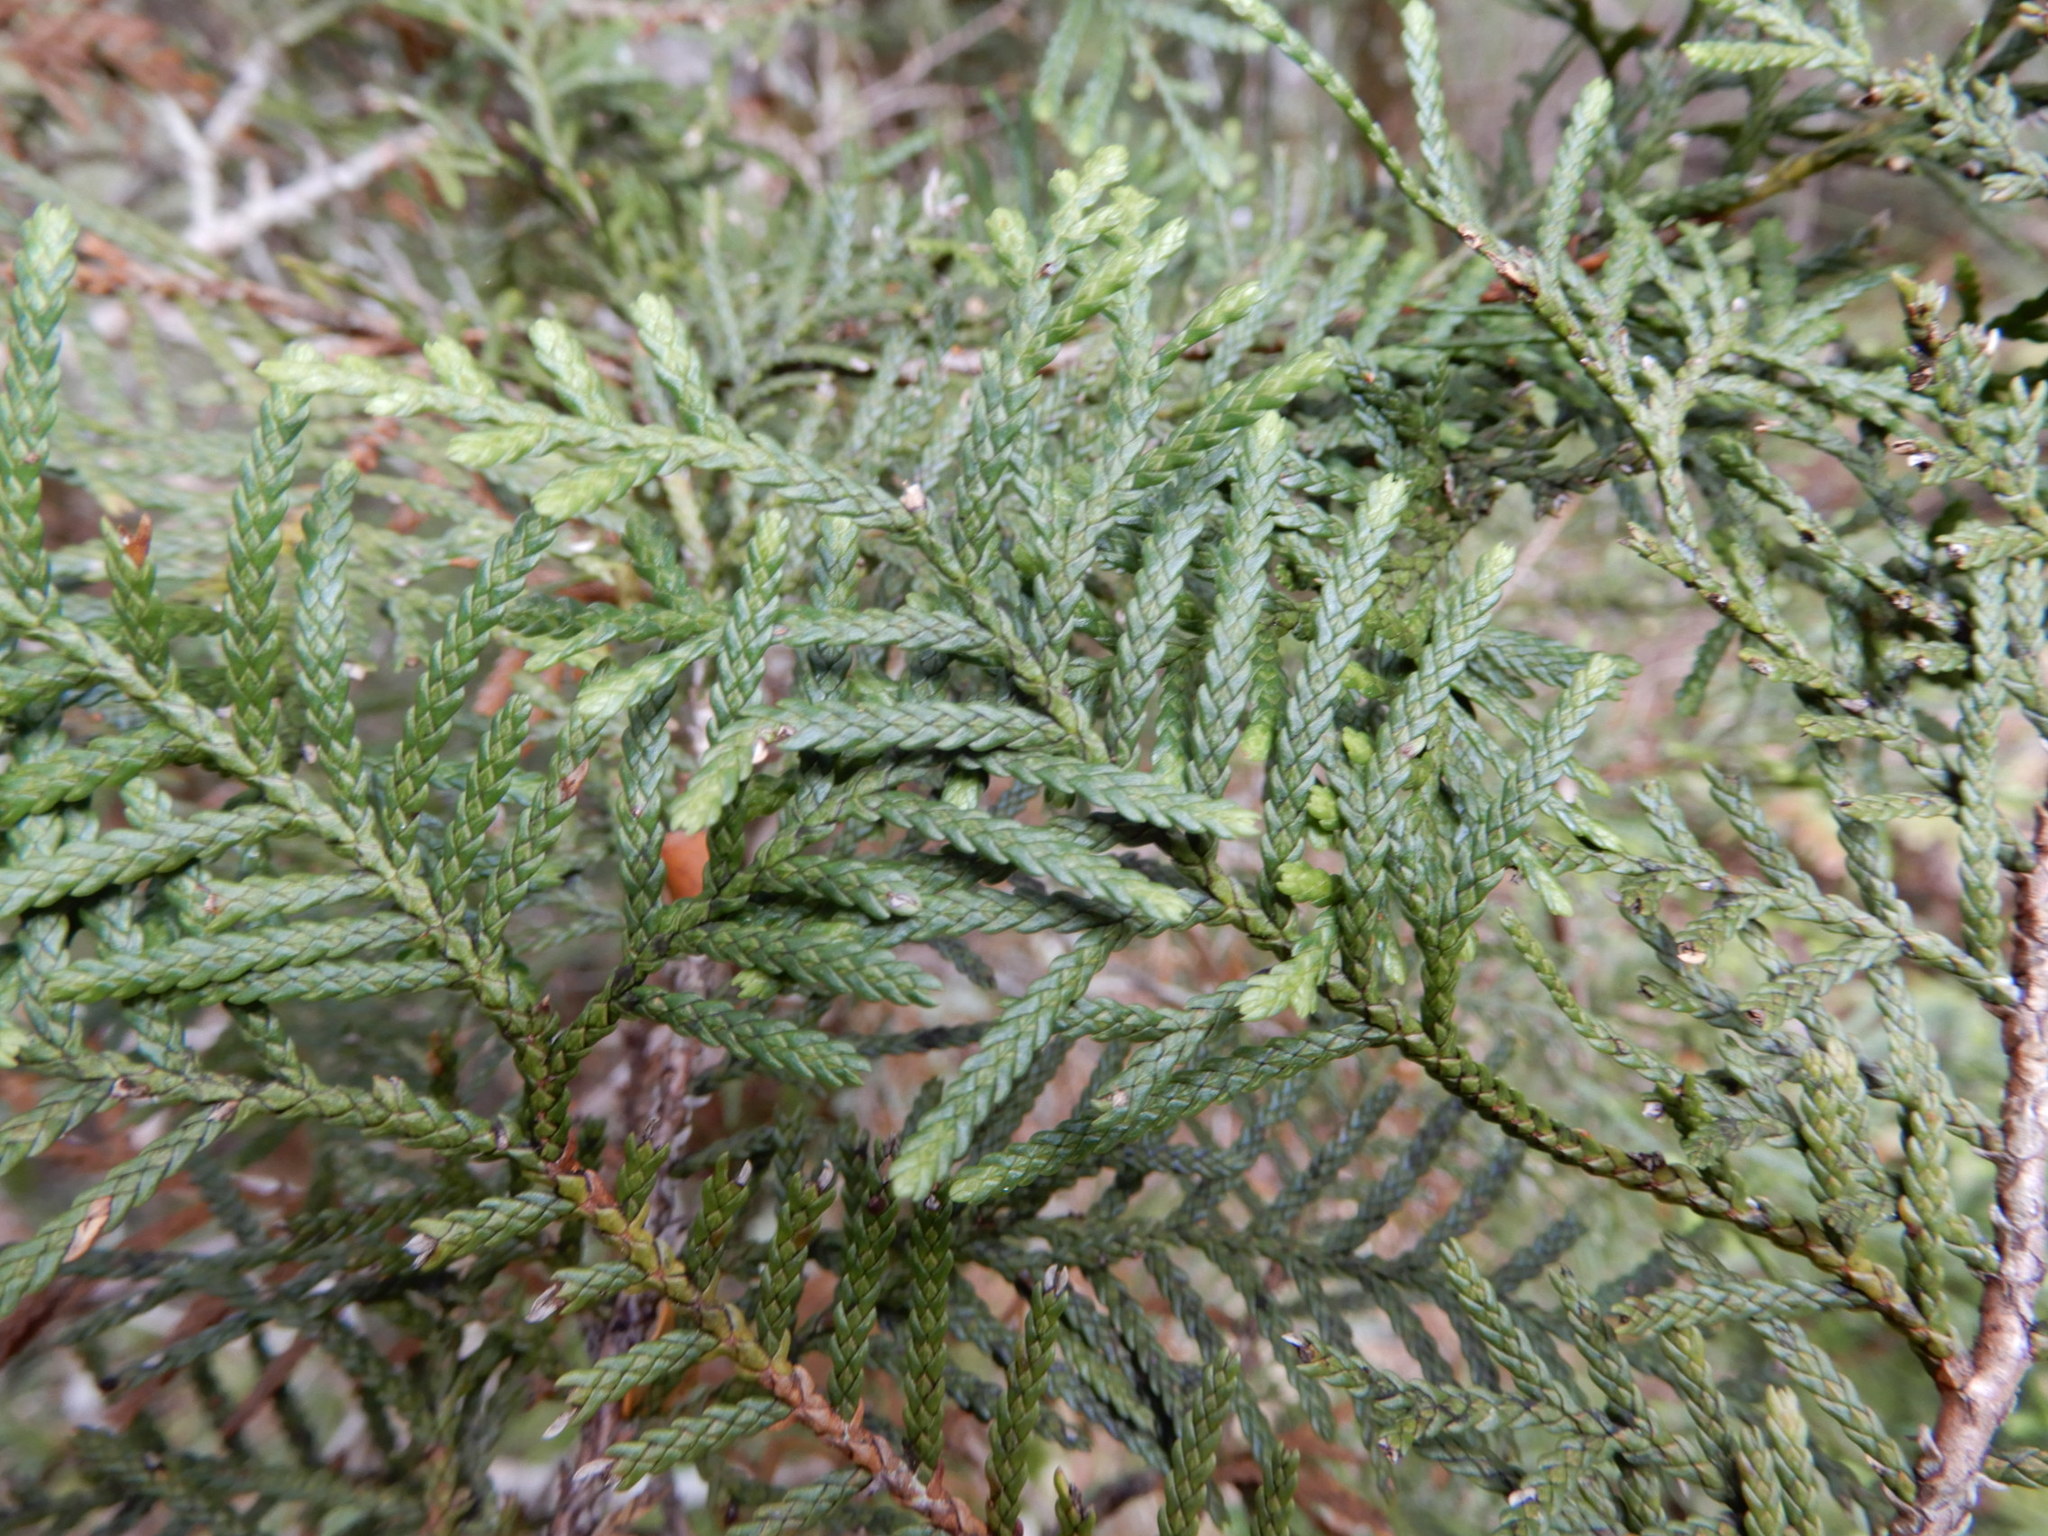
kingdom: Plantae
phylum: Tracheophyta
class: Pinopsida
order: Pinales
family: Cupressaceae
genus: Libocedrus
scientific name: Libocedrus bidwillii
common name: Cedar
